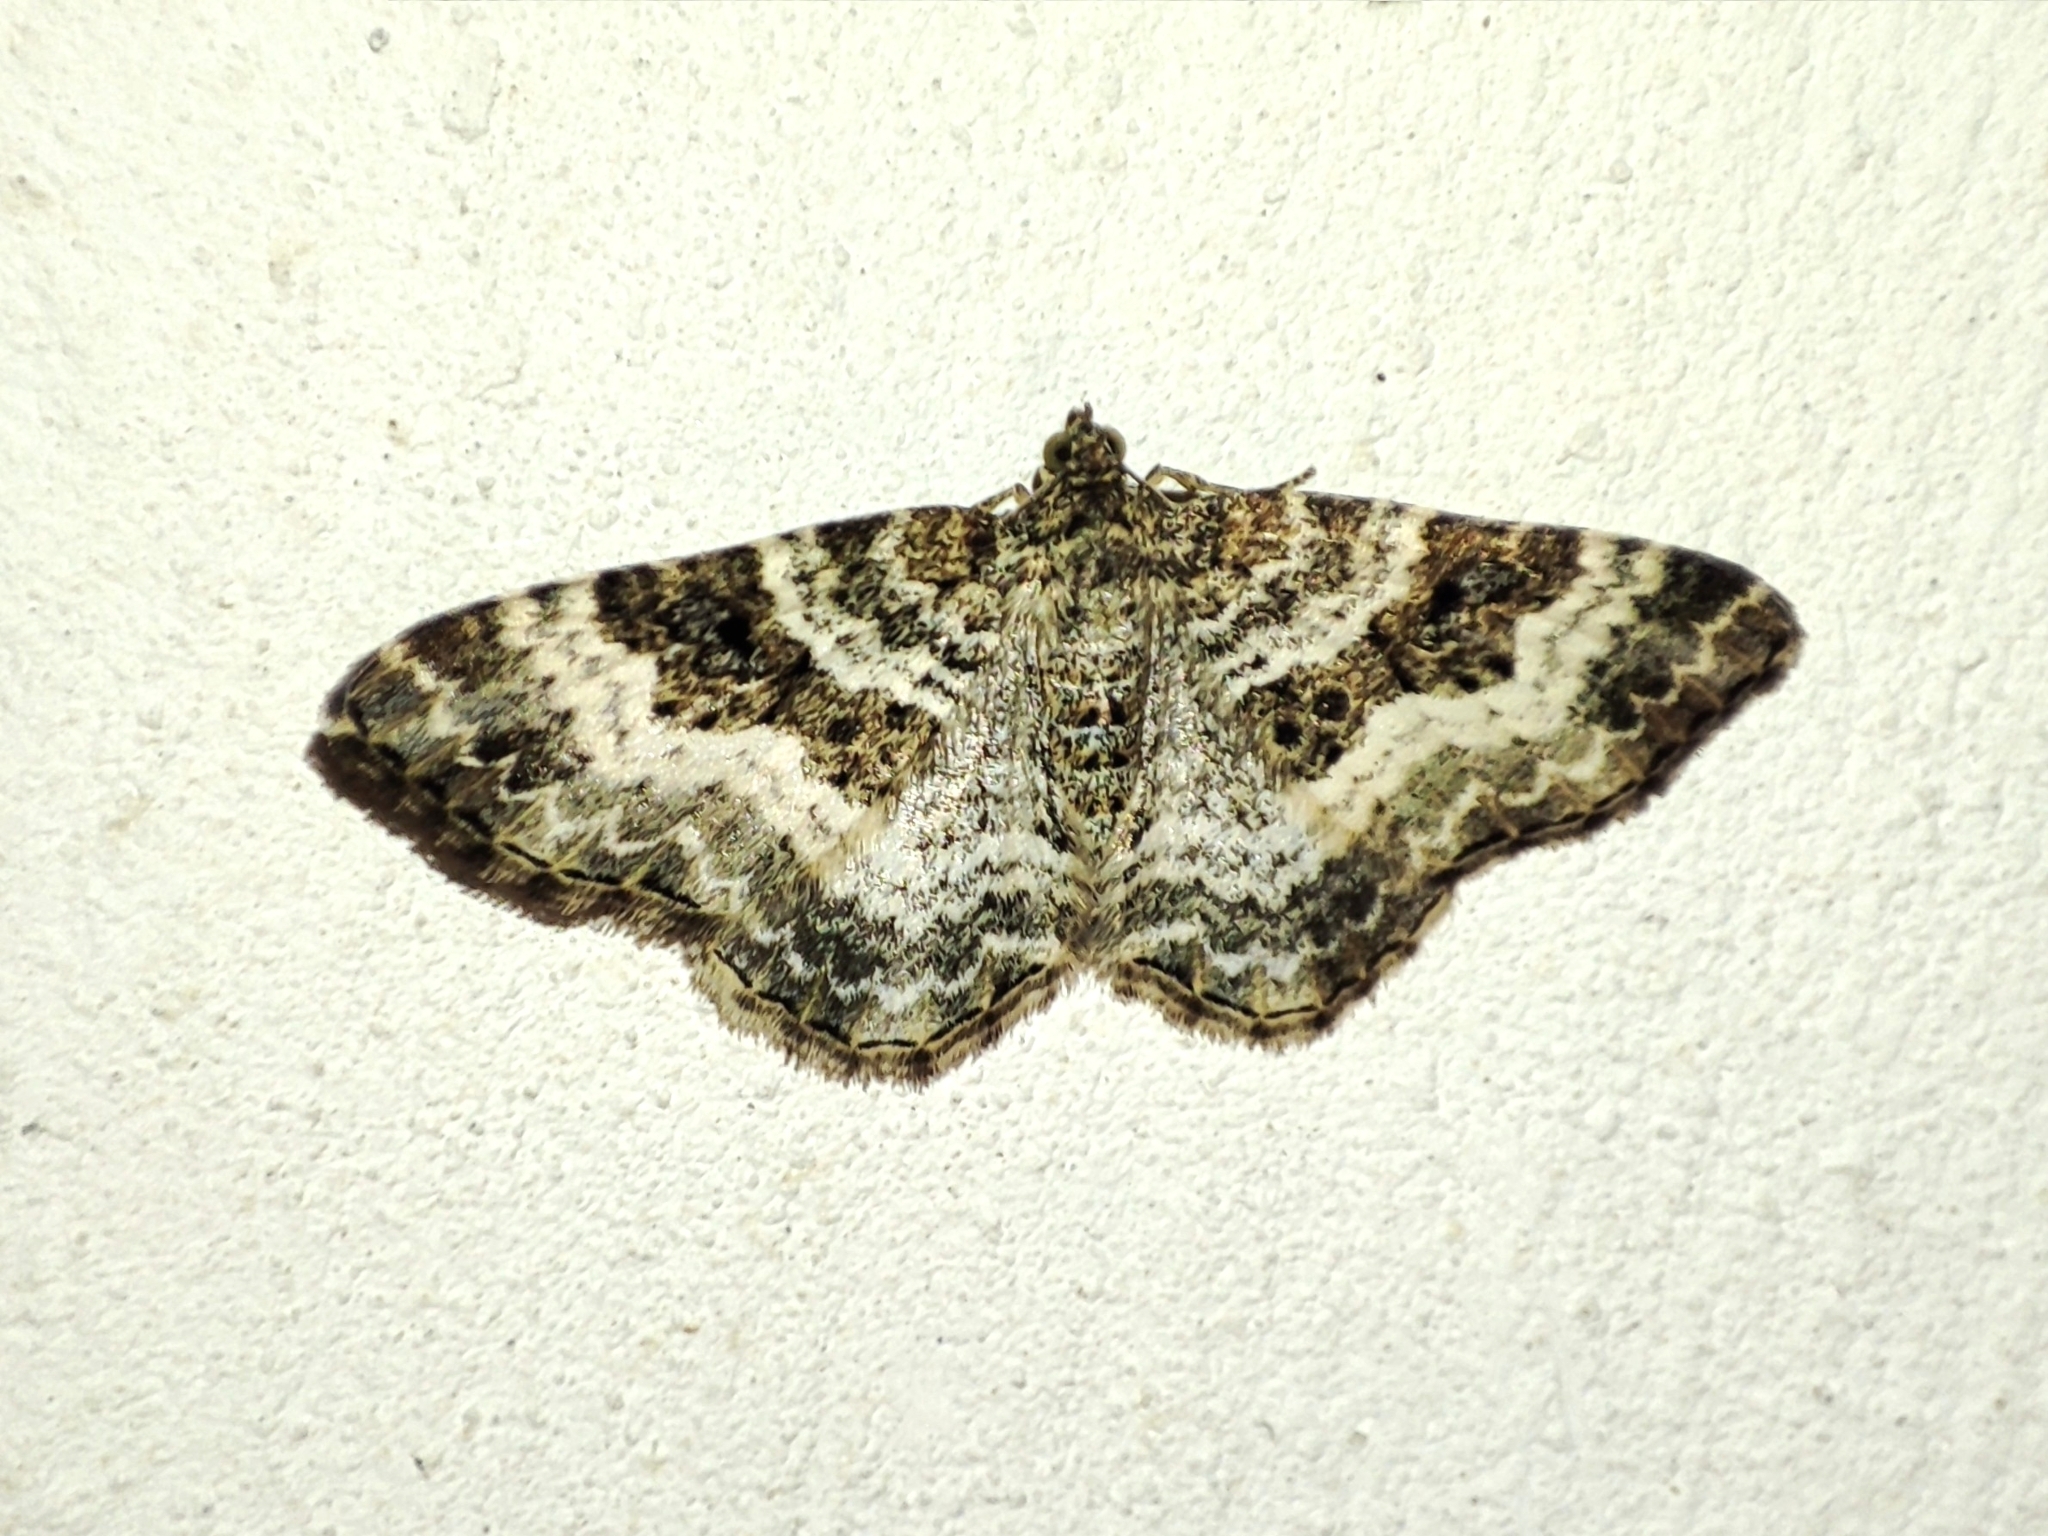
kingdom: Animalia
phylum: Arthropoda
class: Insecta
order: Lepidoptera
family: Geometridae
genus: Epirrhoe
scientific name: Epirrhoe alternata
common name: Common carpet
